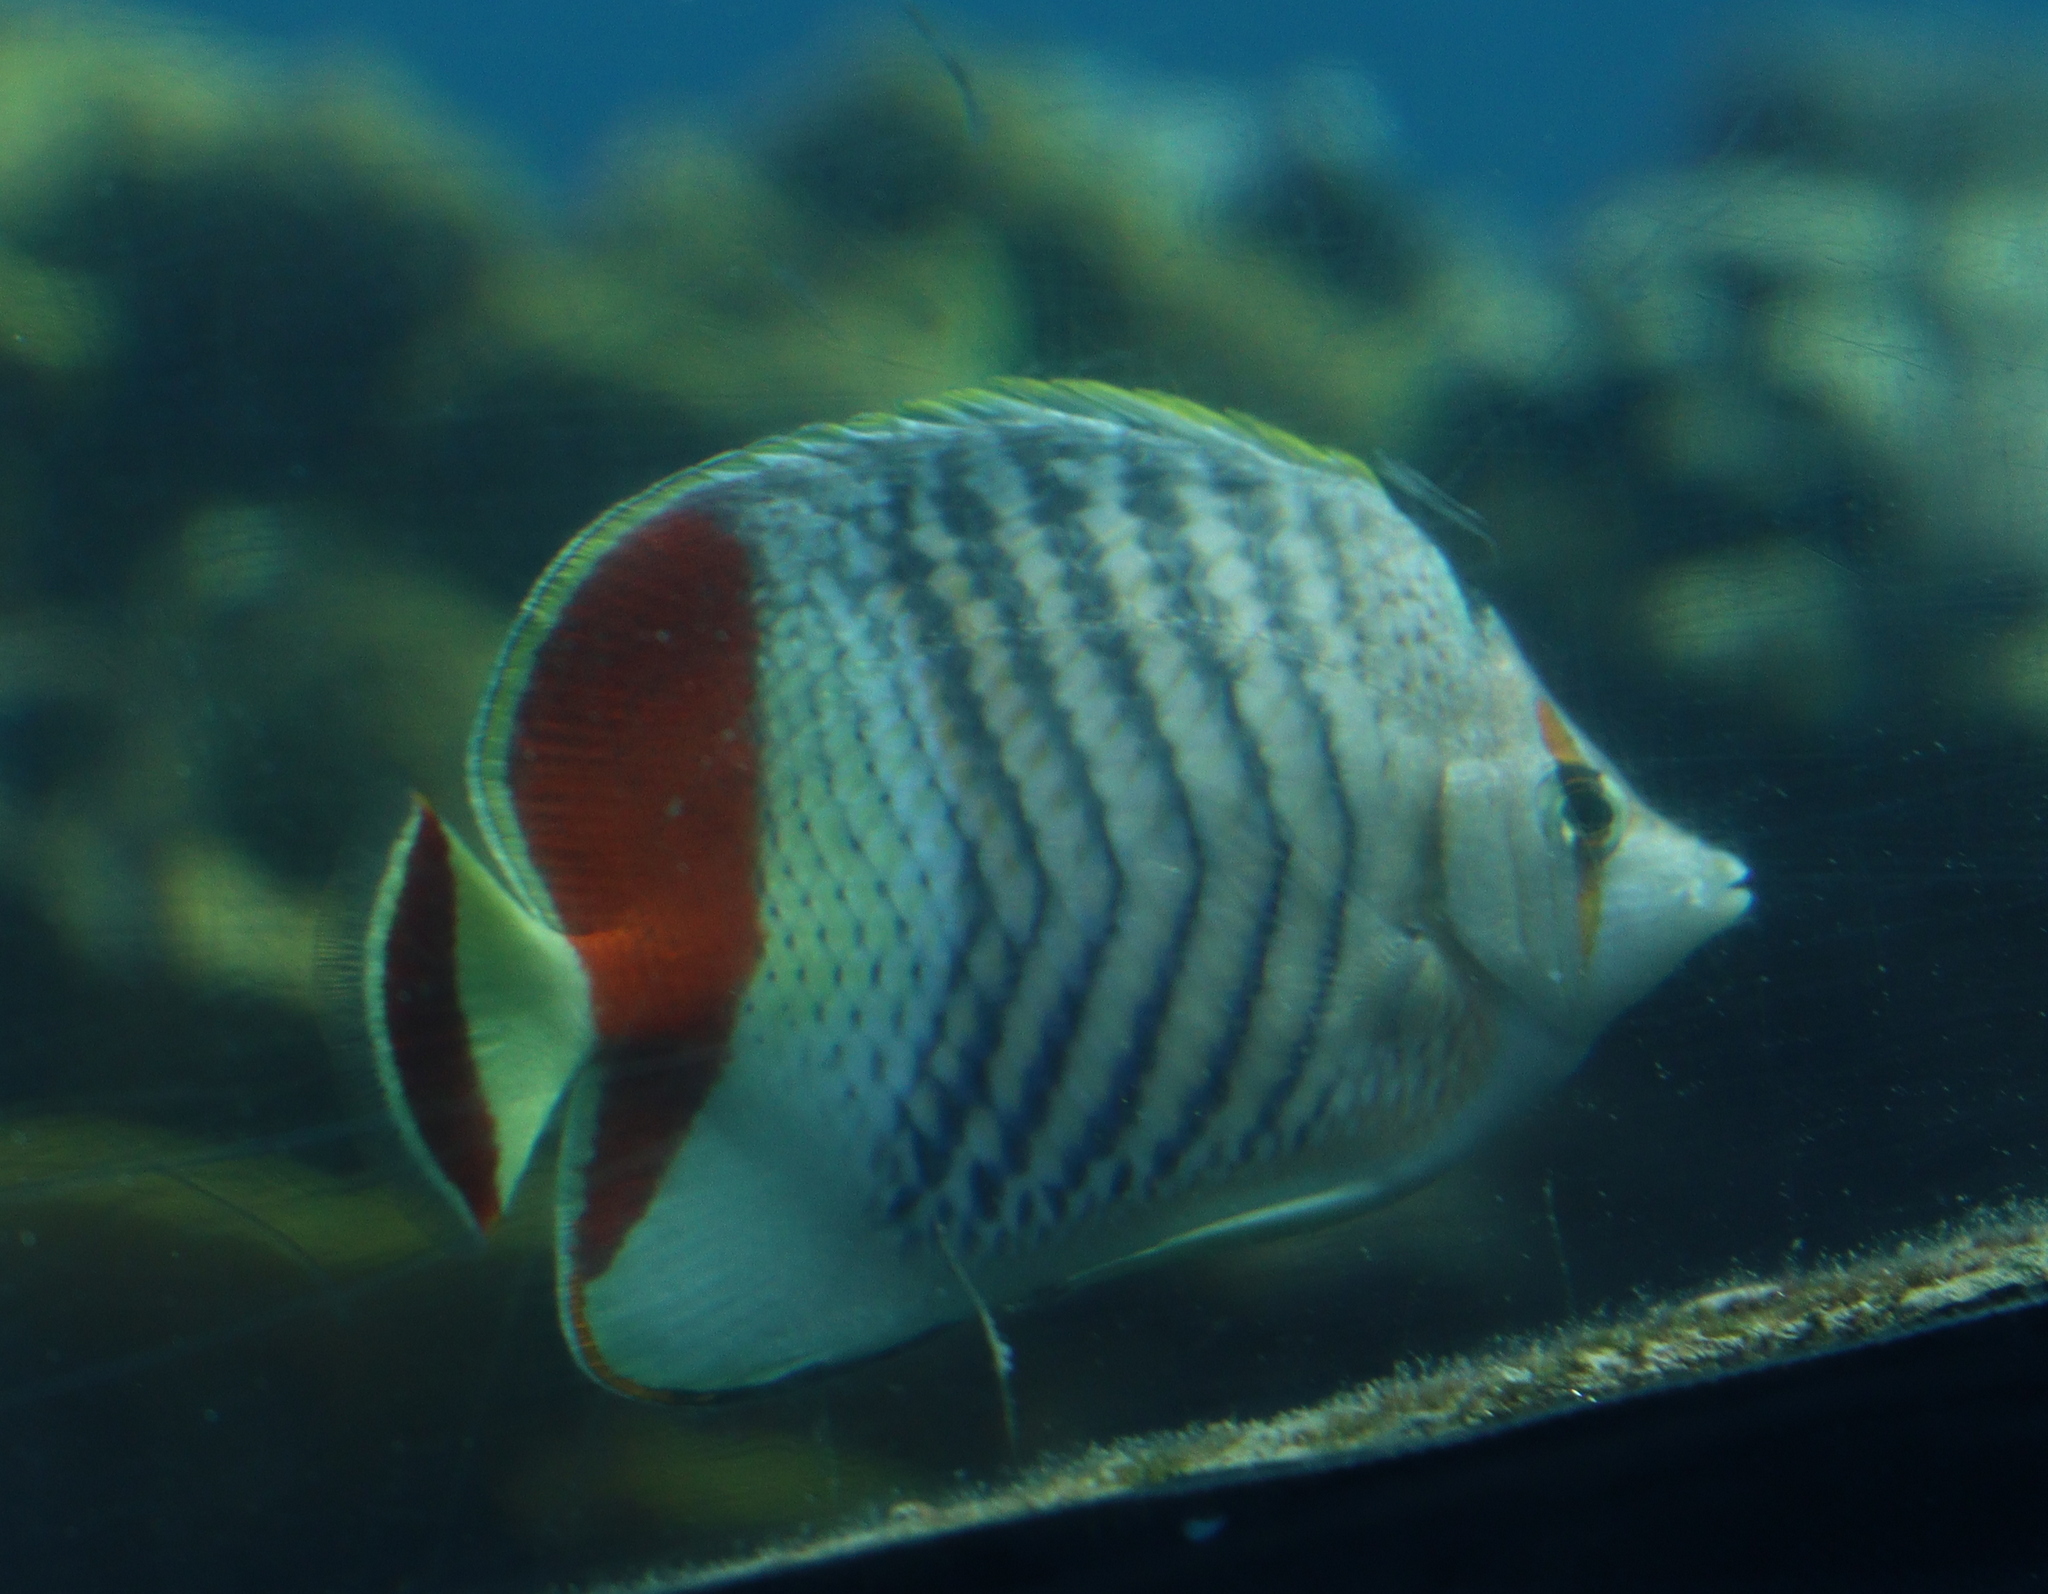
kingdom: Animalia
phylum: Chordata
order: Perciformes
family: Chaetodontidae
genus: Chaetodon
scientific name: Chaetodon paucifasciatus
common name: Crown butterflyfish
